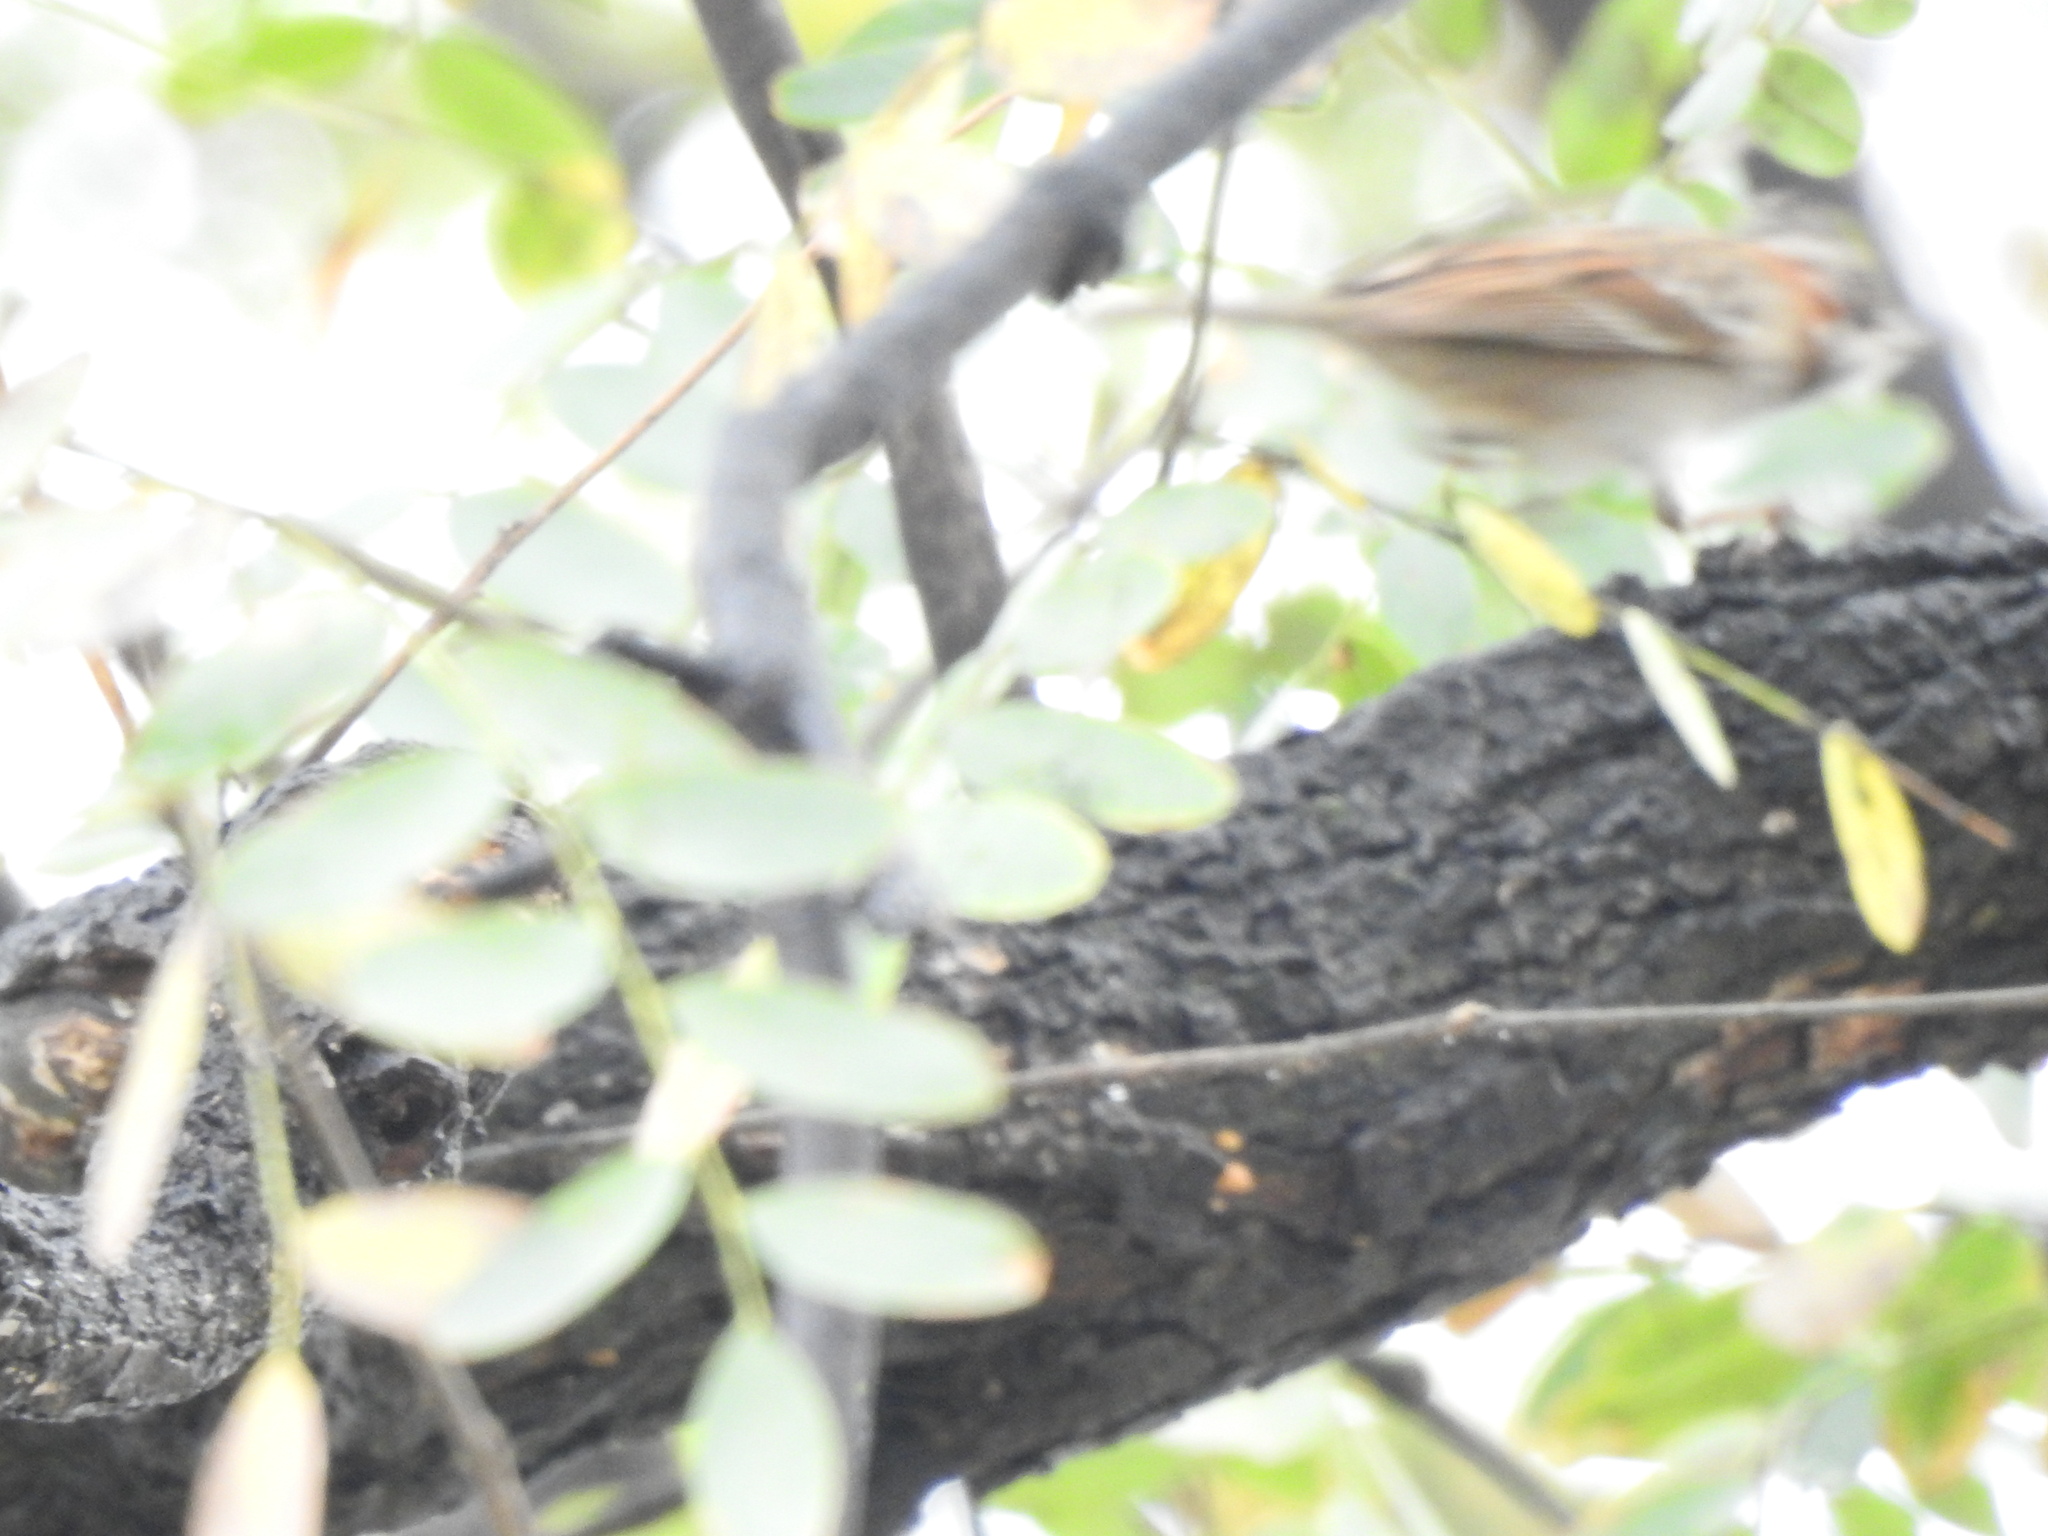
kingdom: Animalia
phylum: Chordata
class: Aves
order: Passeriformes
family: Passerellidae
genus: Zonotrichia
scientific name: Zonotrichia capensis
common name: Rufous-collared sparrow
